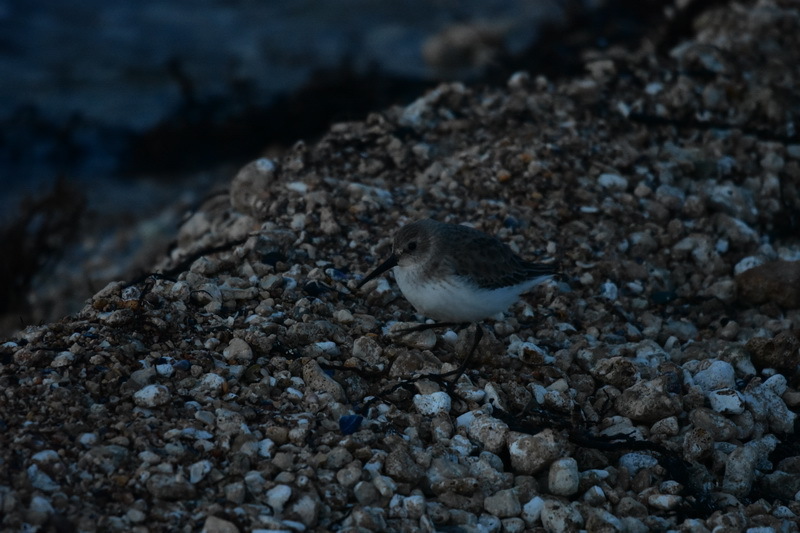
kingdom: Animalia
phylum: Chordata
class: Aves
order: Charadriiformes
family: Scolopacidae
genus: Calidris
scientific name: Calidris alpina
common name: Dunlin
